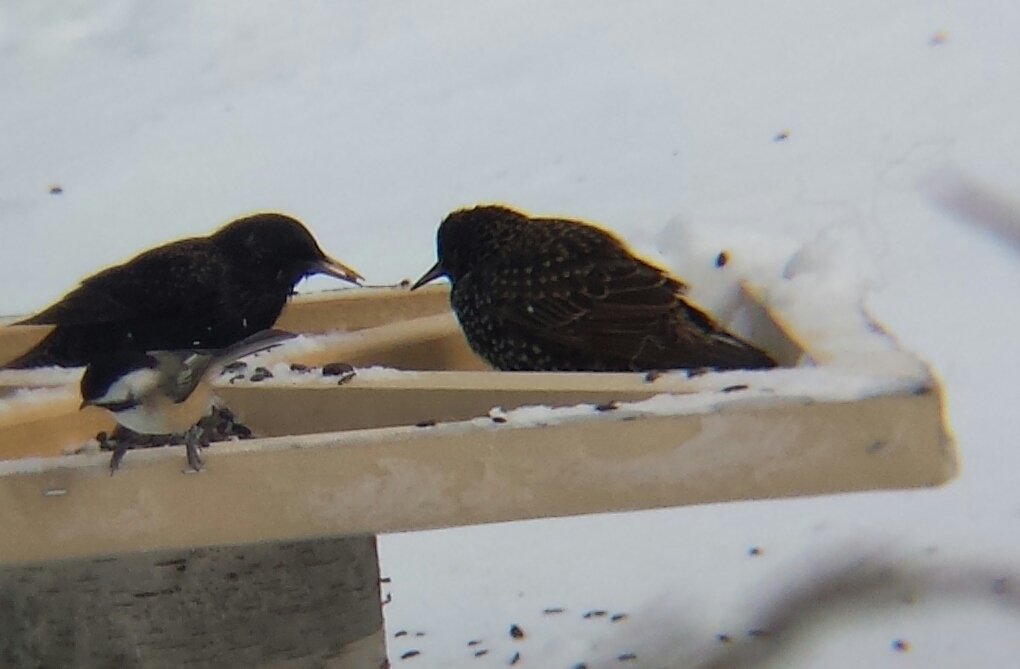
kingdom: Animalia
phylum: Chordata
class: Aves
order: Passeriformes
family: Sturnidae
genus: Sturnus
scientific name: Sturnus vulgaris
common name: Common starling
